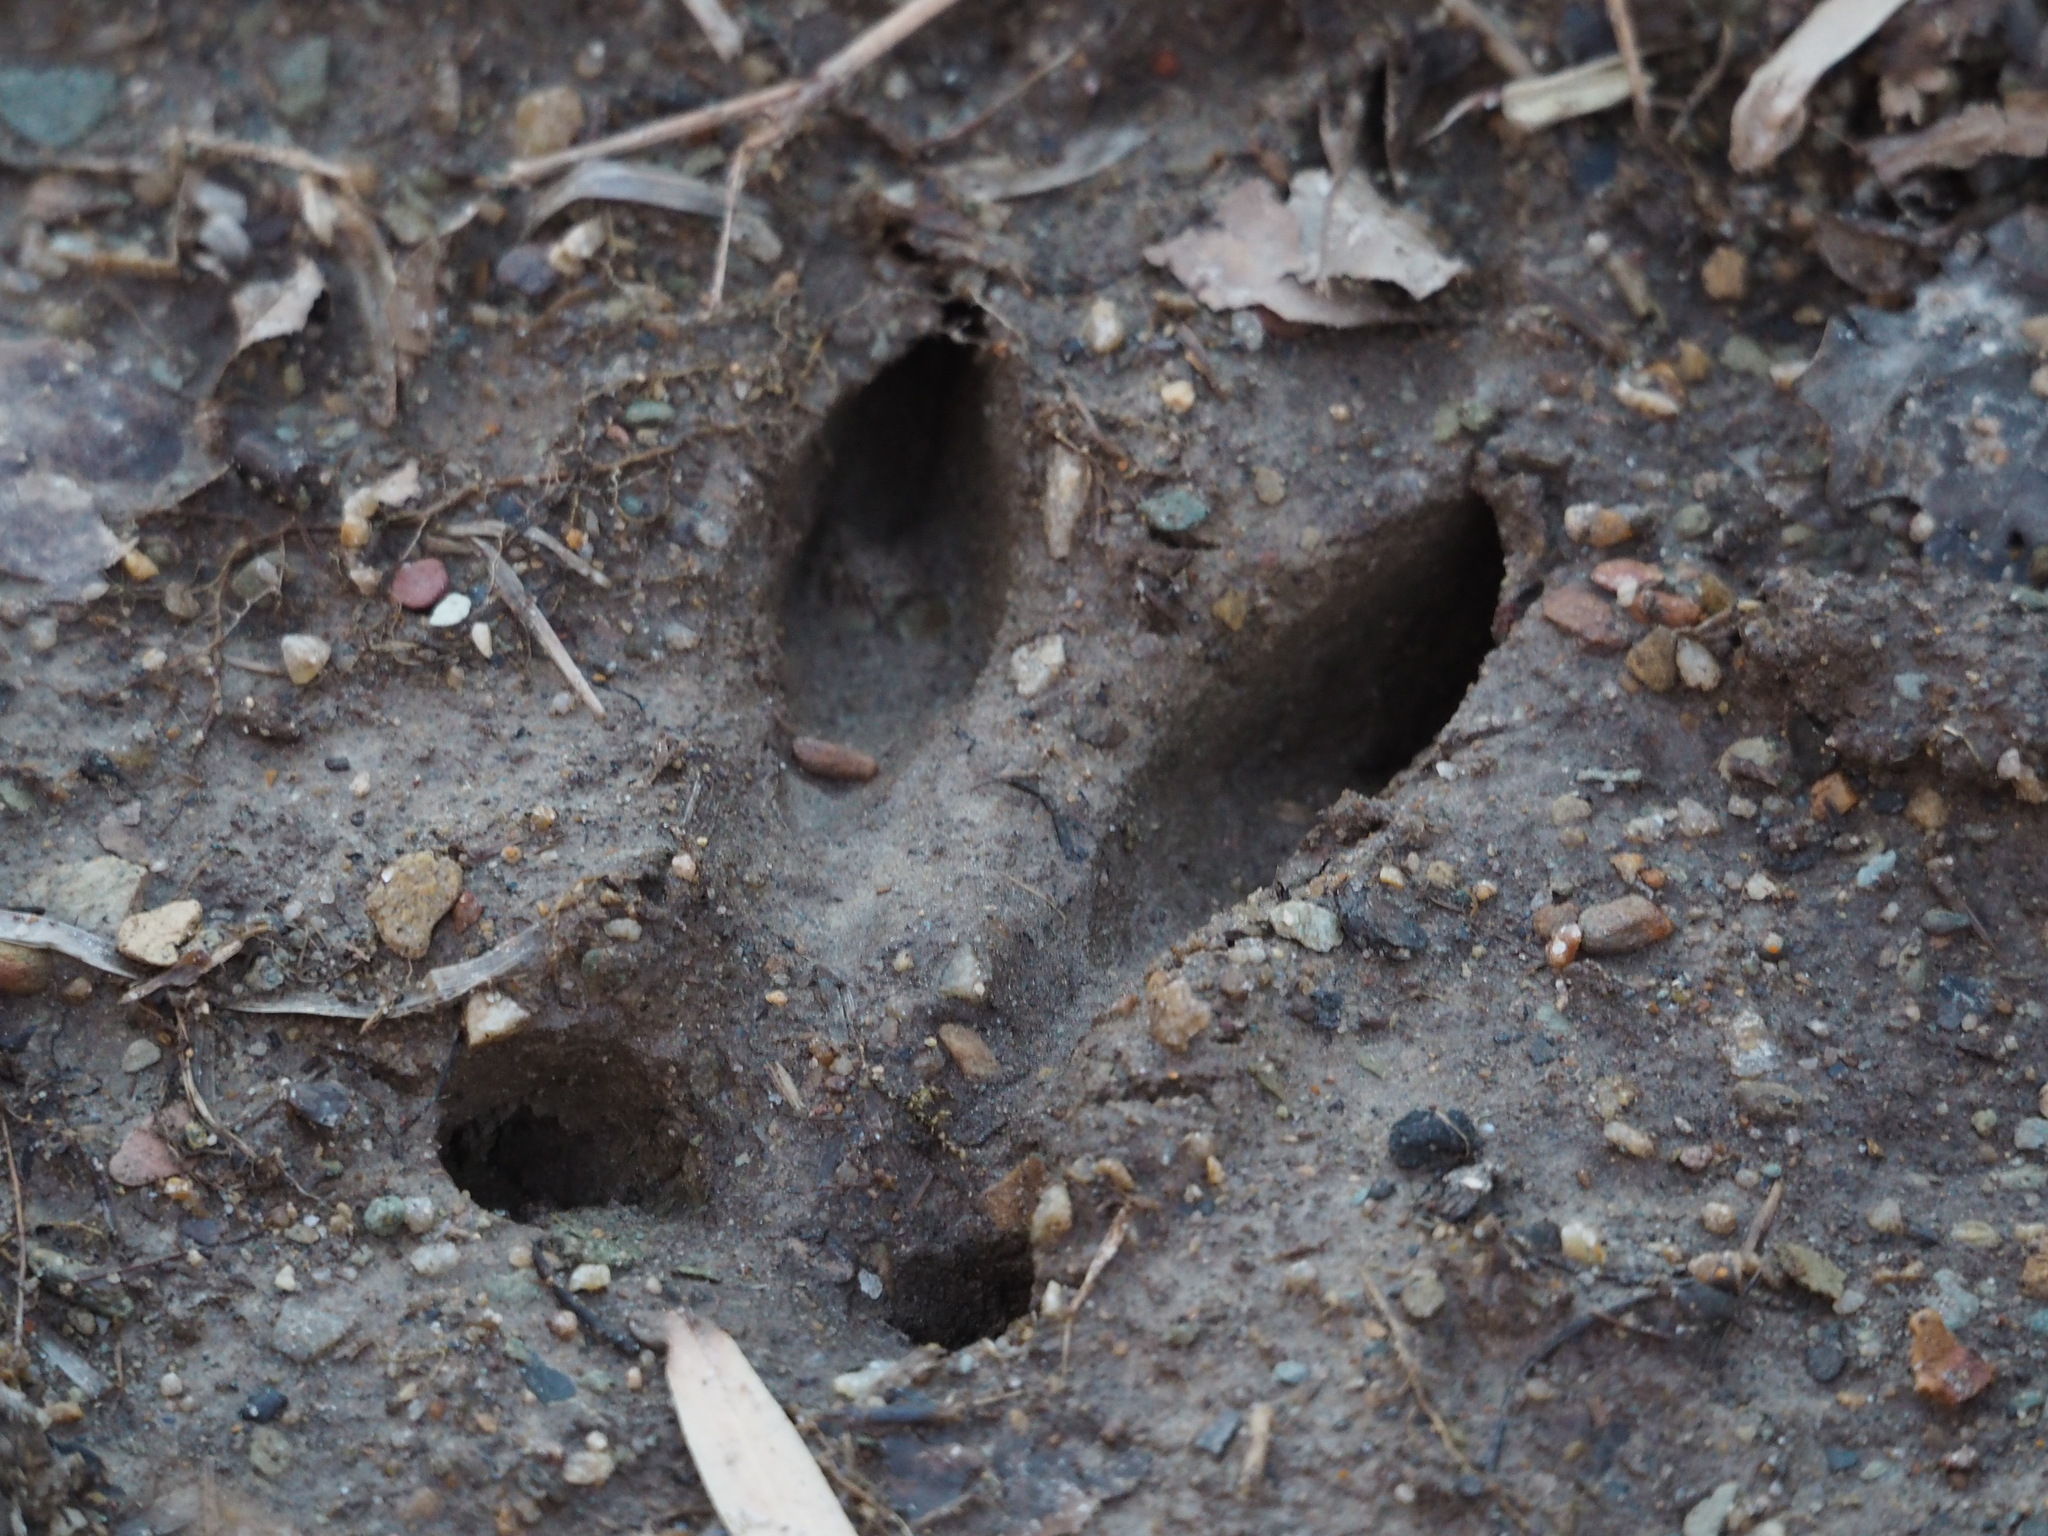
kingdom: Animalia
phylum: Chordata
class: Mammalia
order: Artiodactyla
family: Cervidae
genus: Odocoileus
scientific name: Odocoileus virginianus
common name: White-tailed deer
